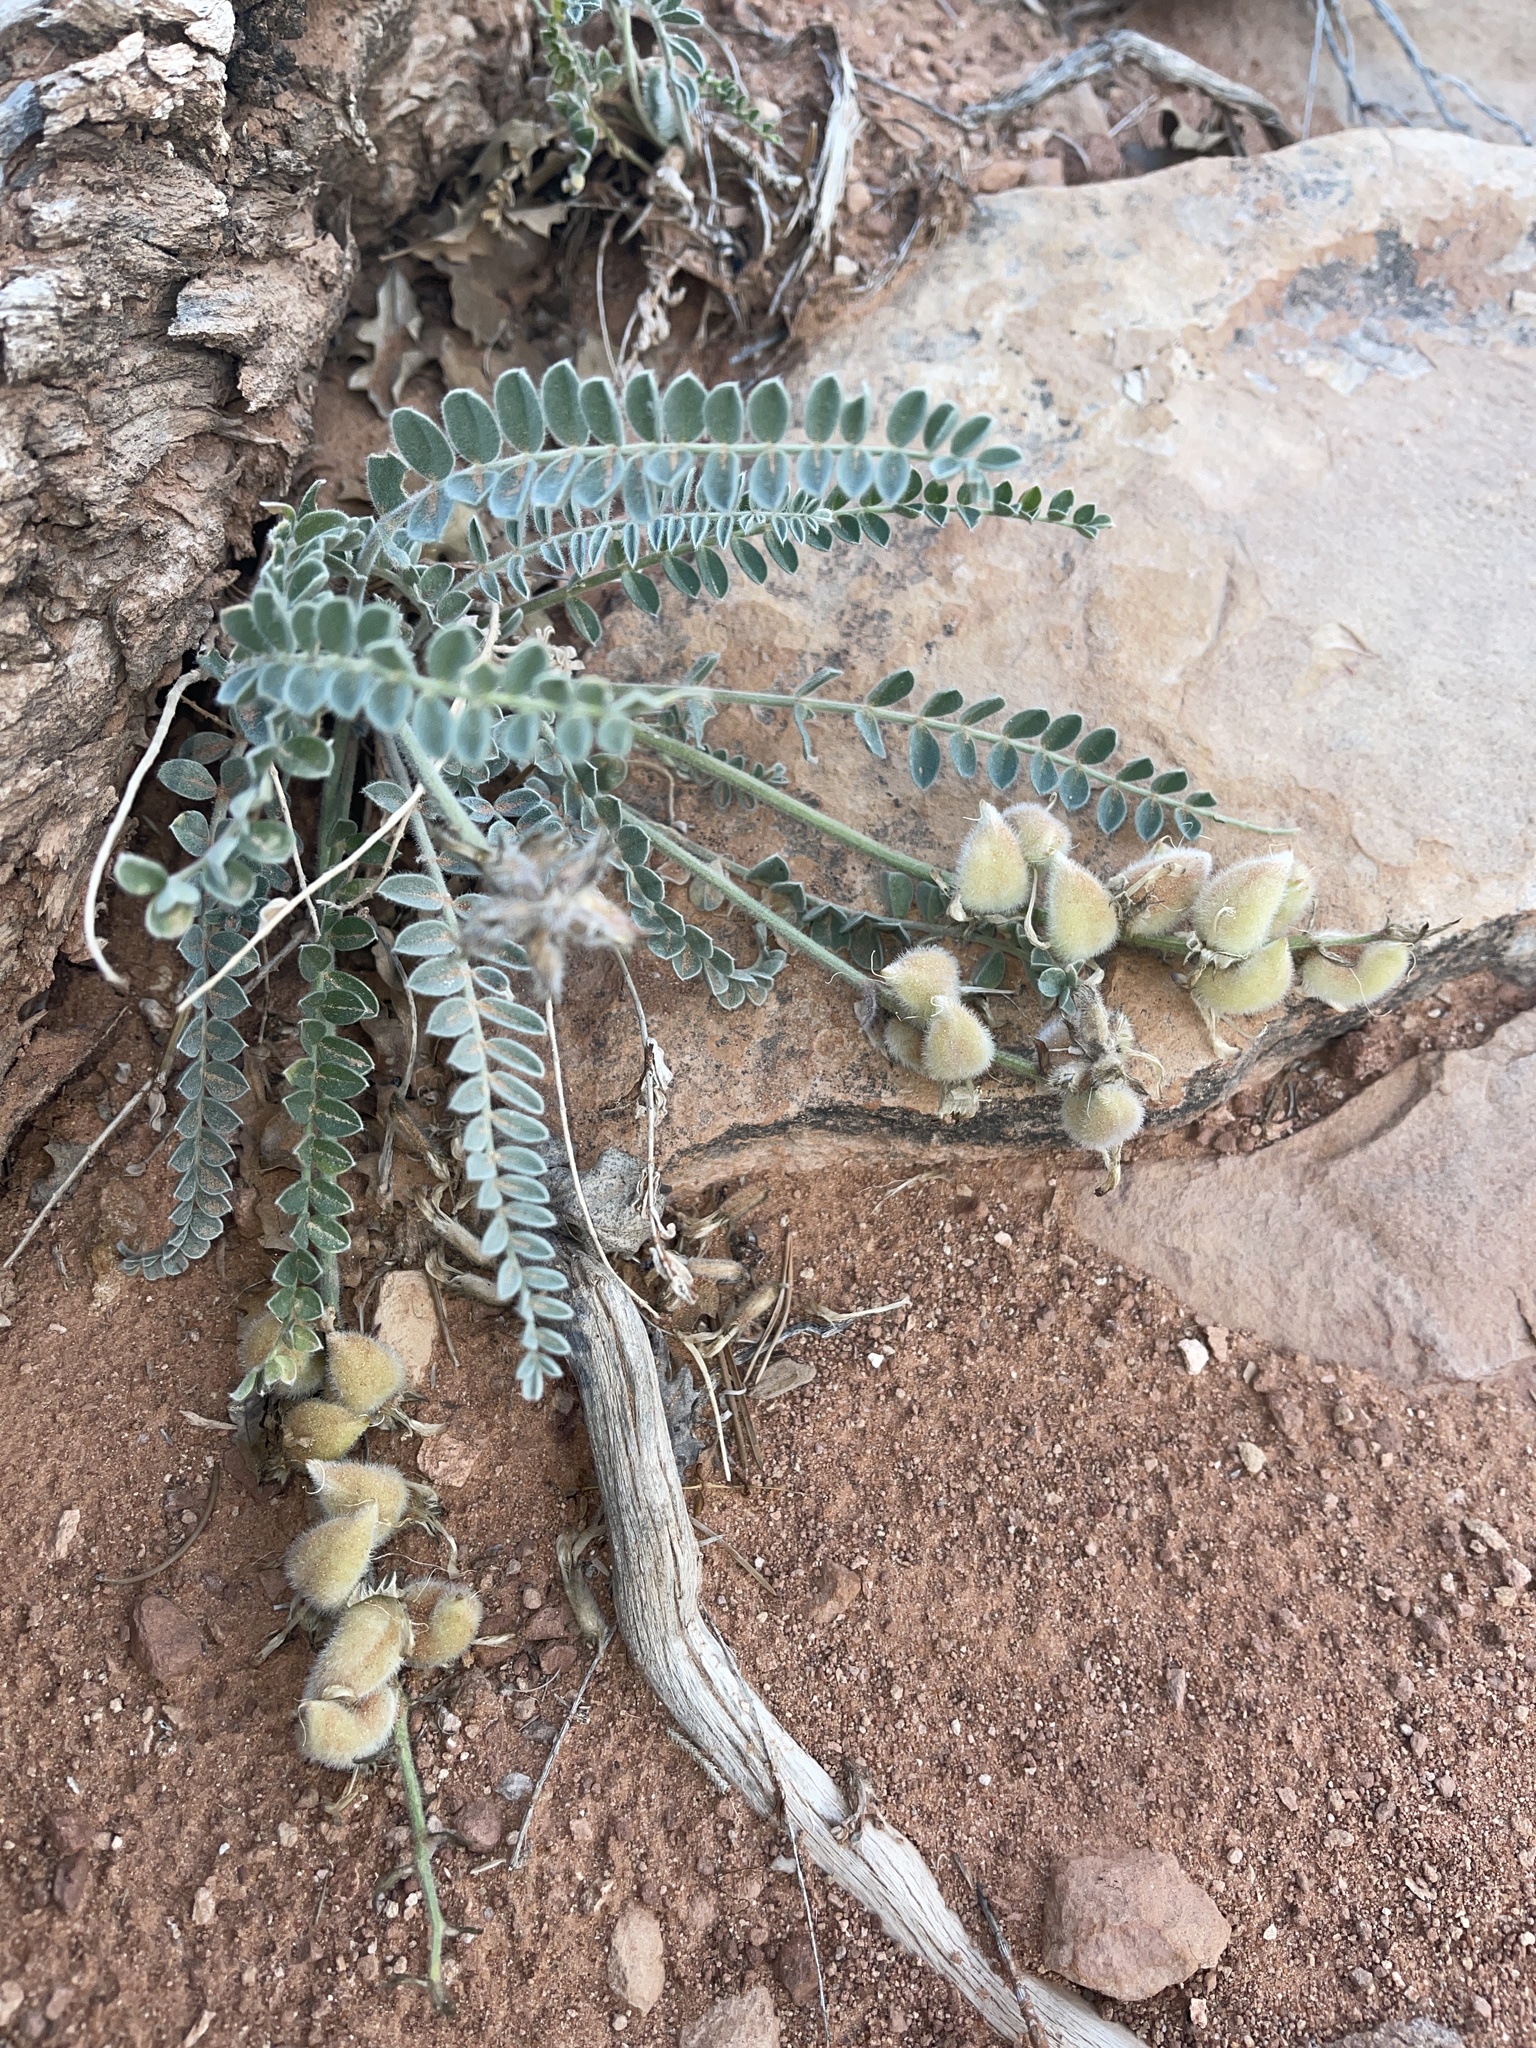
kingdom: Plantae
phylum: Tracheophyta
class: Magnoliopsida
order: Fabales
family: Fabaceae
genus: Astragalus
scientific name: Astragalus mollissimus
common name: Woolly locoweed
